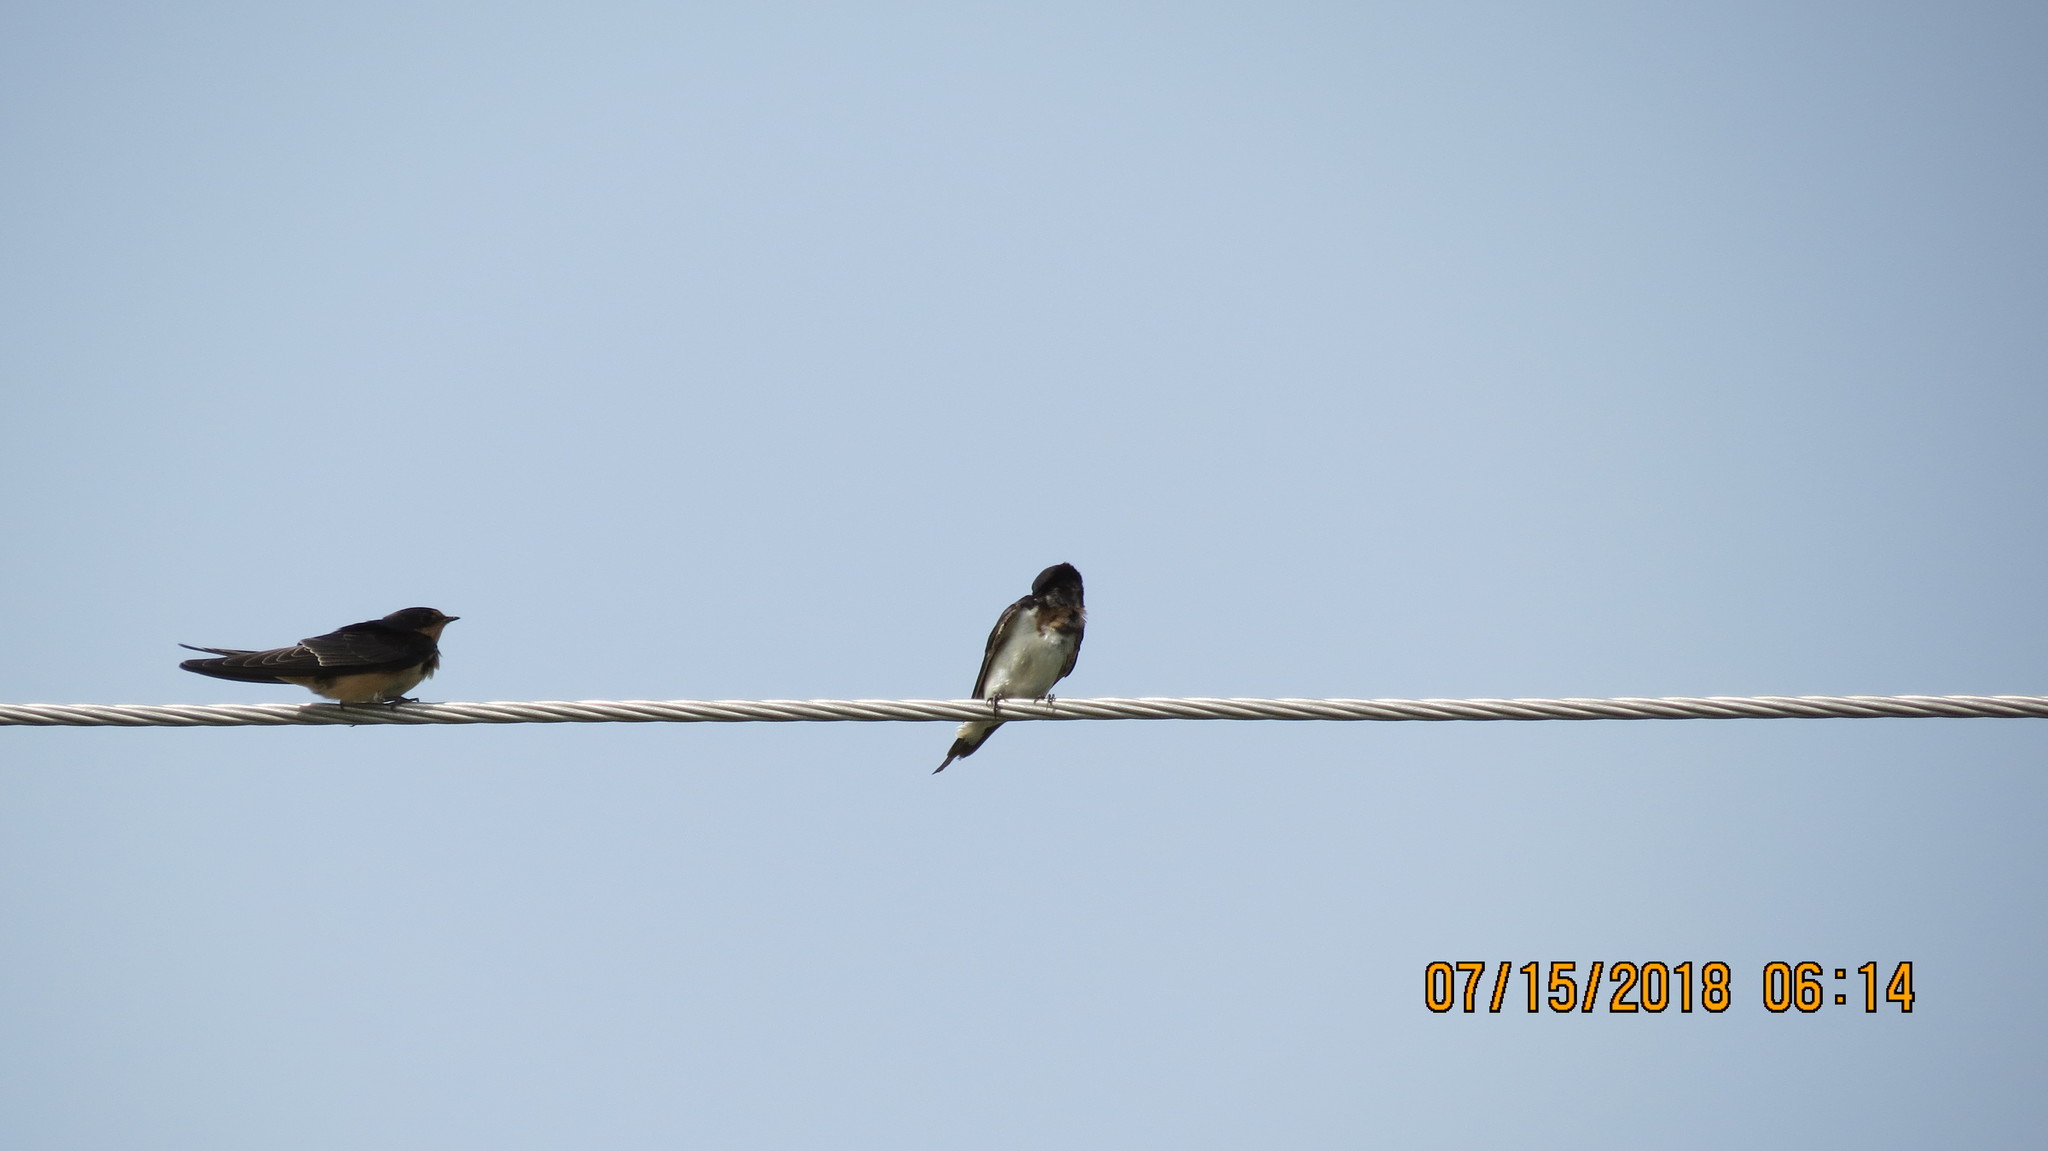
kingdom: Animalia
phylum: Chordata
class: Aves
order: Passeriformes
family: Hirundinidae
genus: Hirundo
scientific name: Hirundo rustica
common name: Barn swallow
